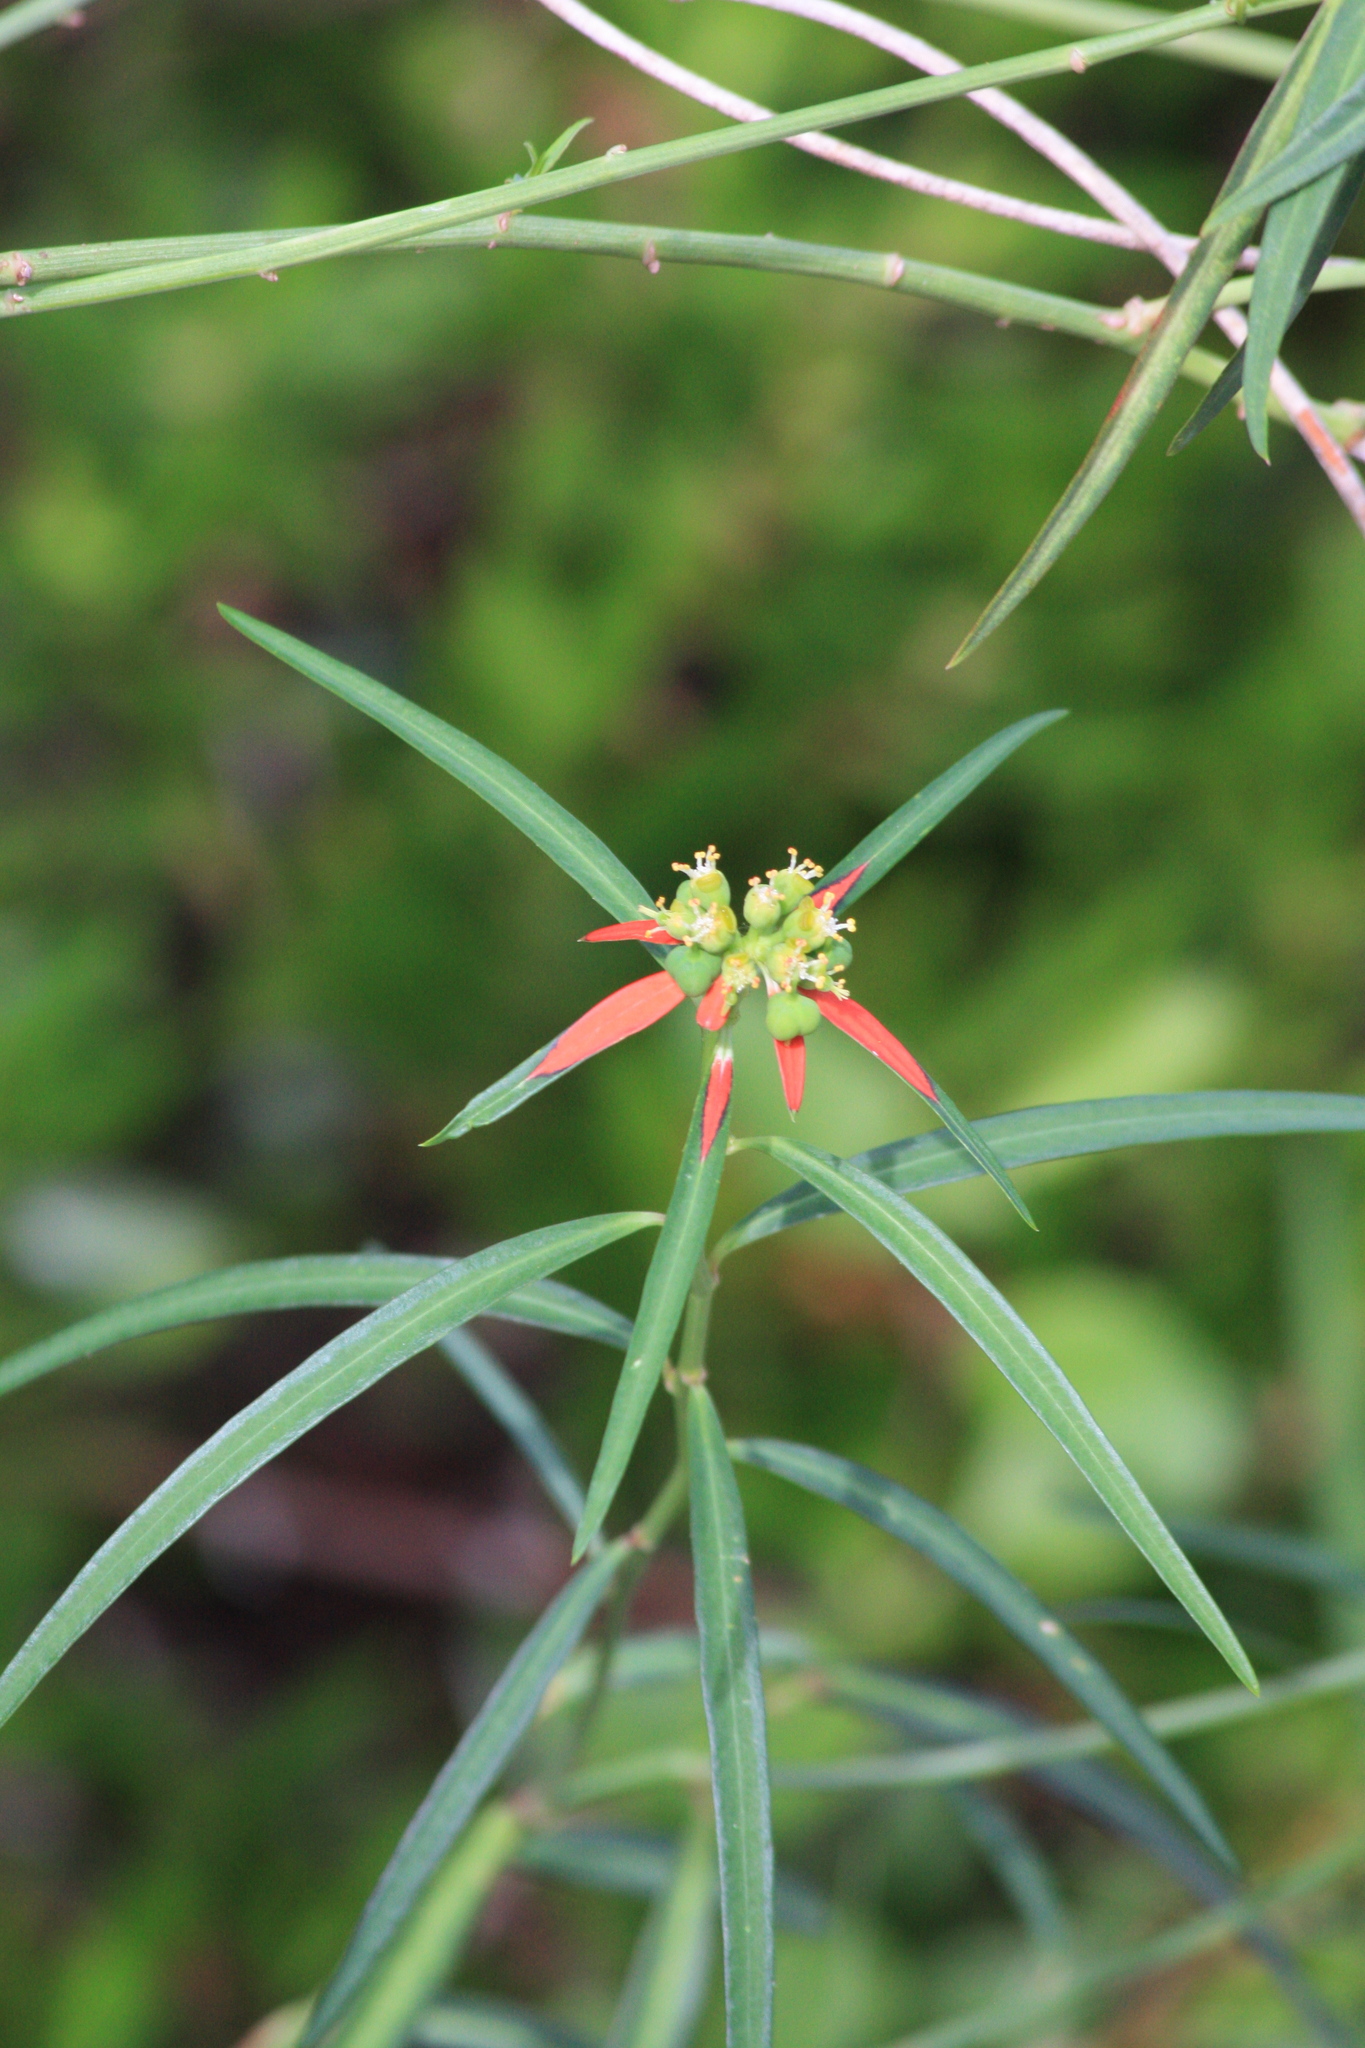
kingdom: Plantae
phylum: Tracheophyta
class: Magnoliopsida
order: Malpighiales
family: Euphorbiaceae
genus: Euphorbia
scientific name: Euphorbia heterophylla
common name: Mexican fireplant
